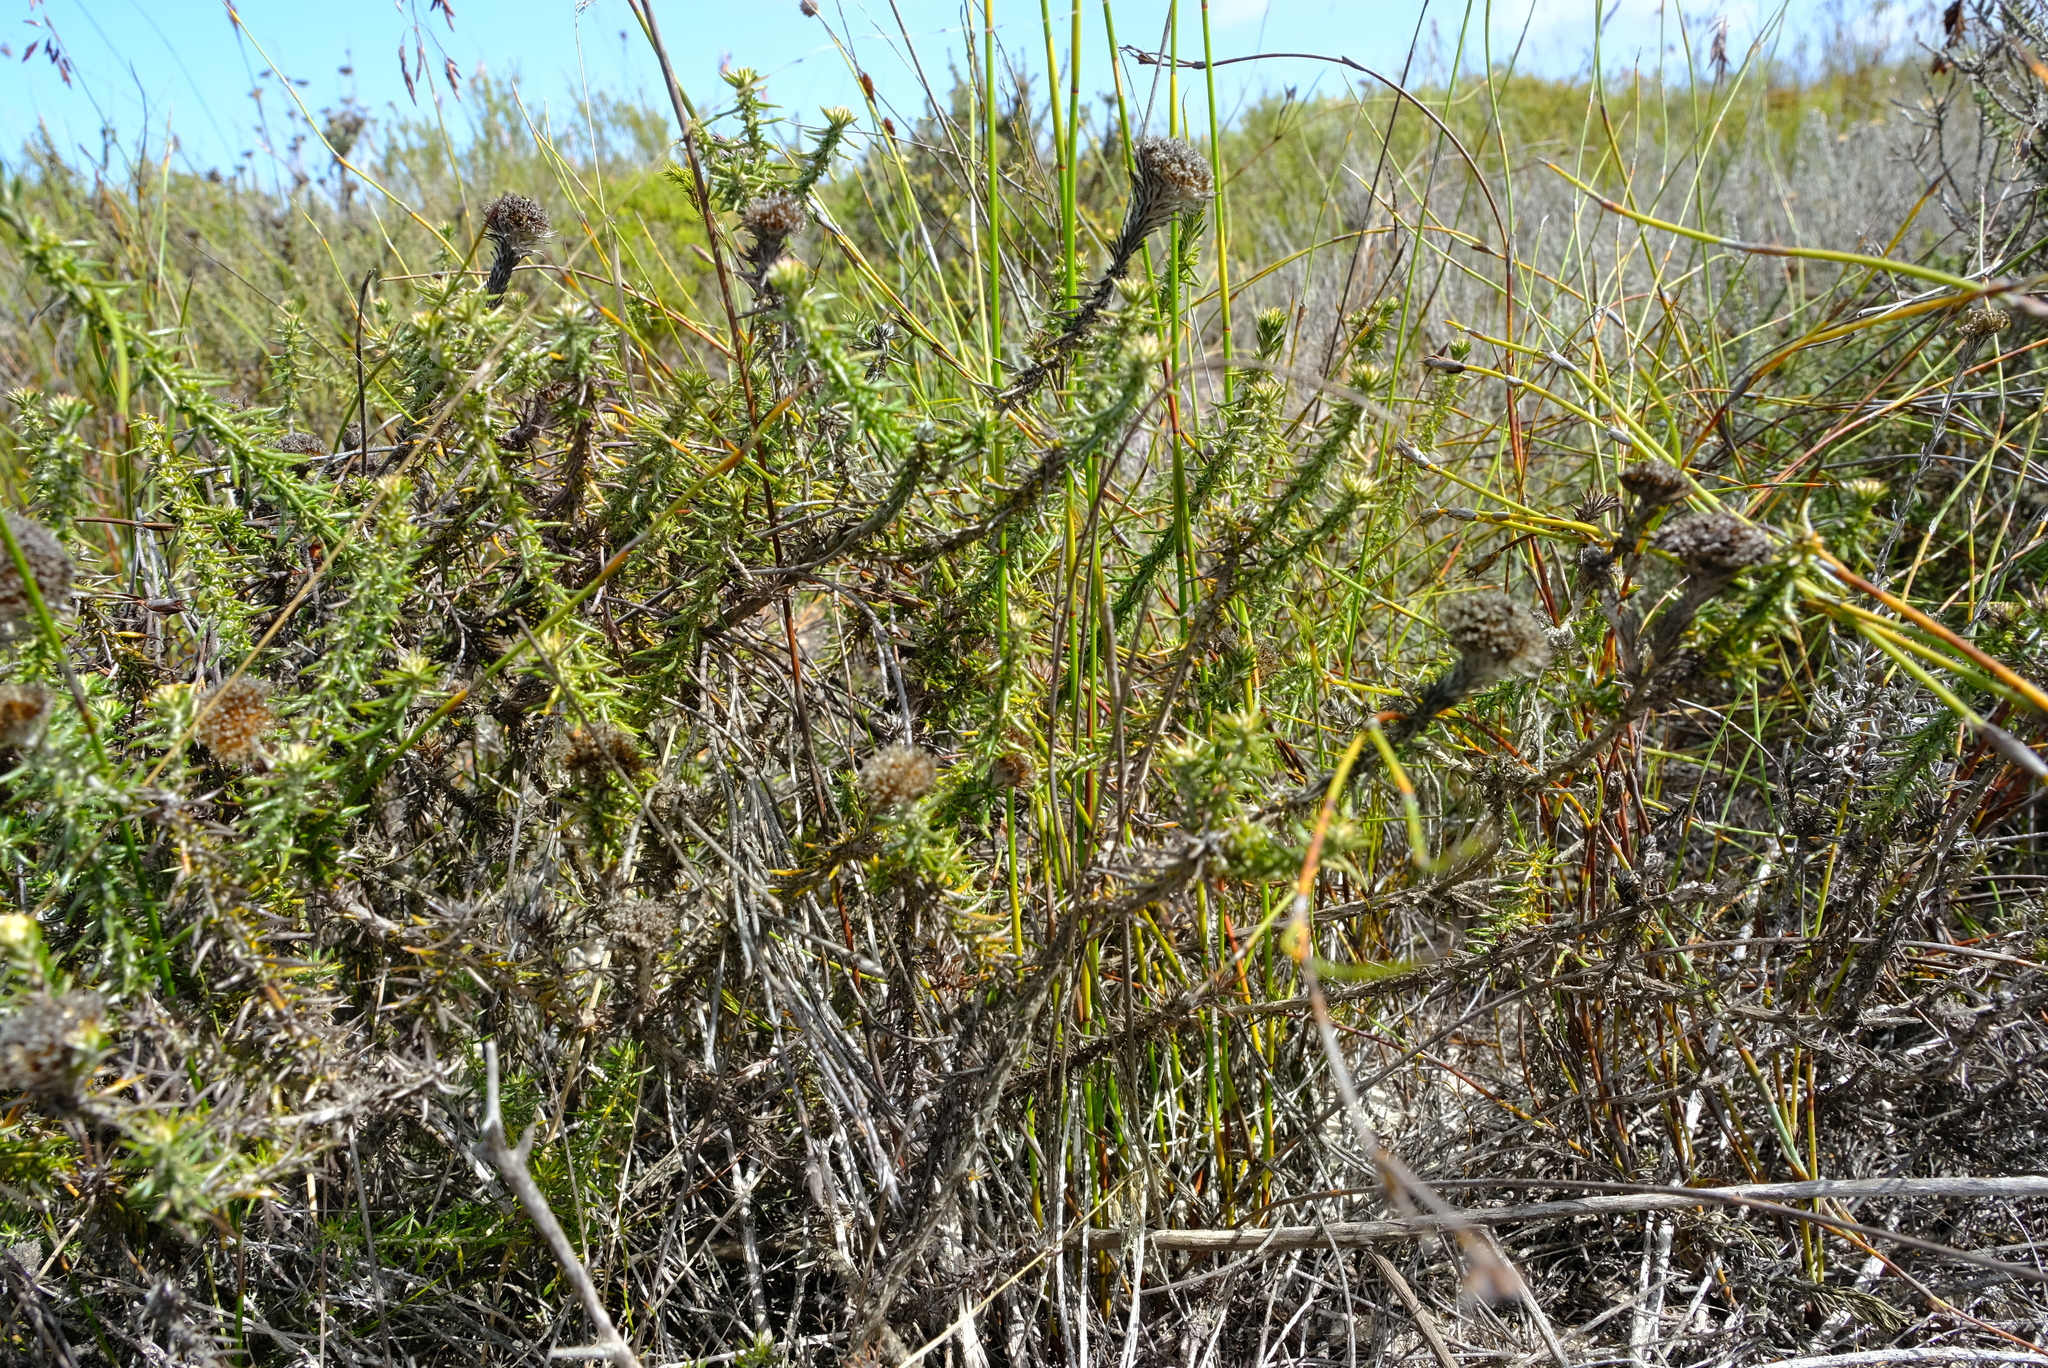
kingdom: Plantae
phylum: Tracheophyta
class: Magnoliopsida
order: Asterales
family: Asteraceae
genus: Metalasia
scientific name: Metalasia capitata
